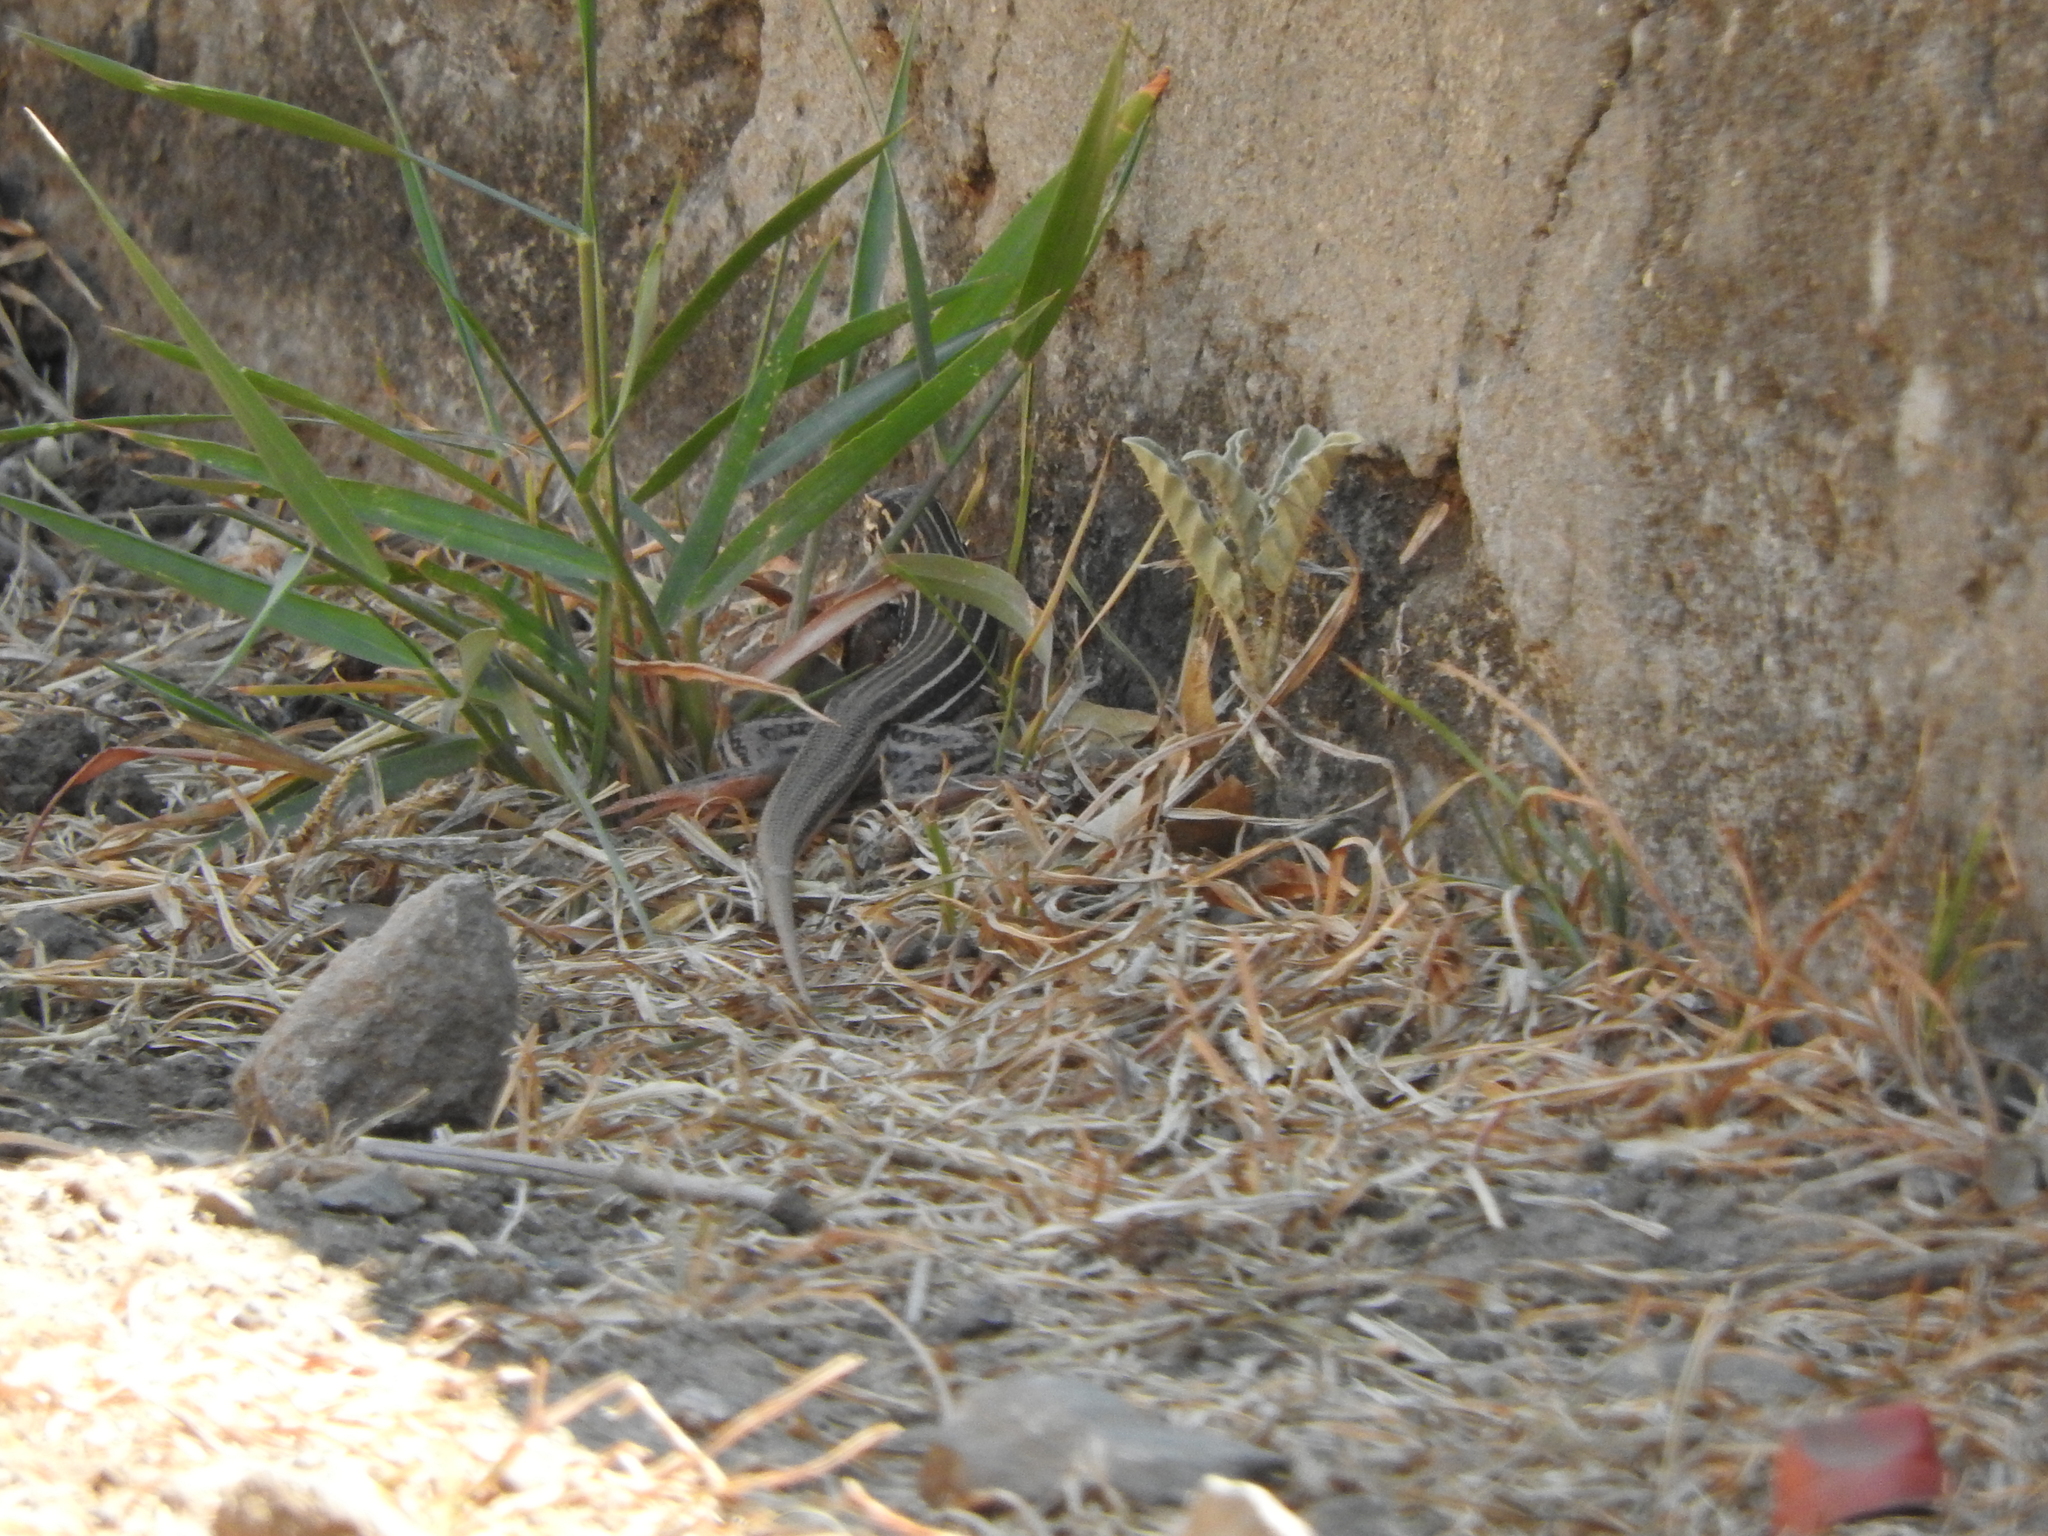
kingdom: Animalia
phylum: Chordata
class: Squamata
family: Teiidae
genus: Aspidoscelis
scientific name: Aspidoscelis gularis
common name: Eastern spotted whiptail
